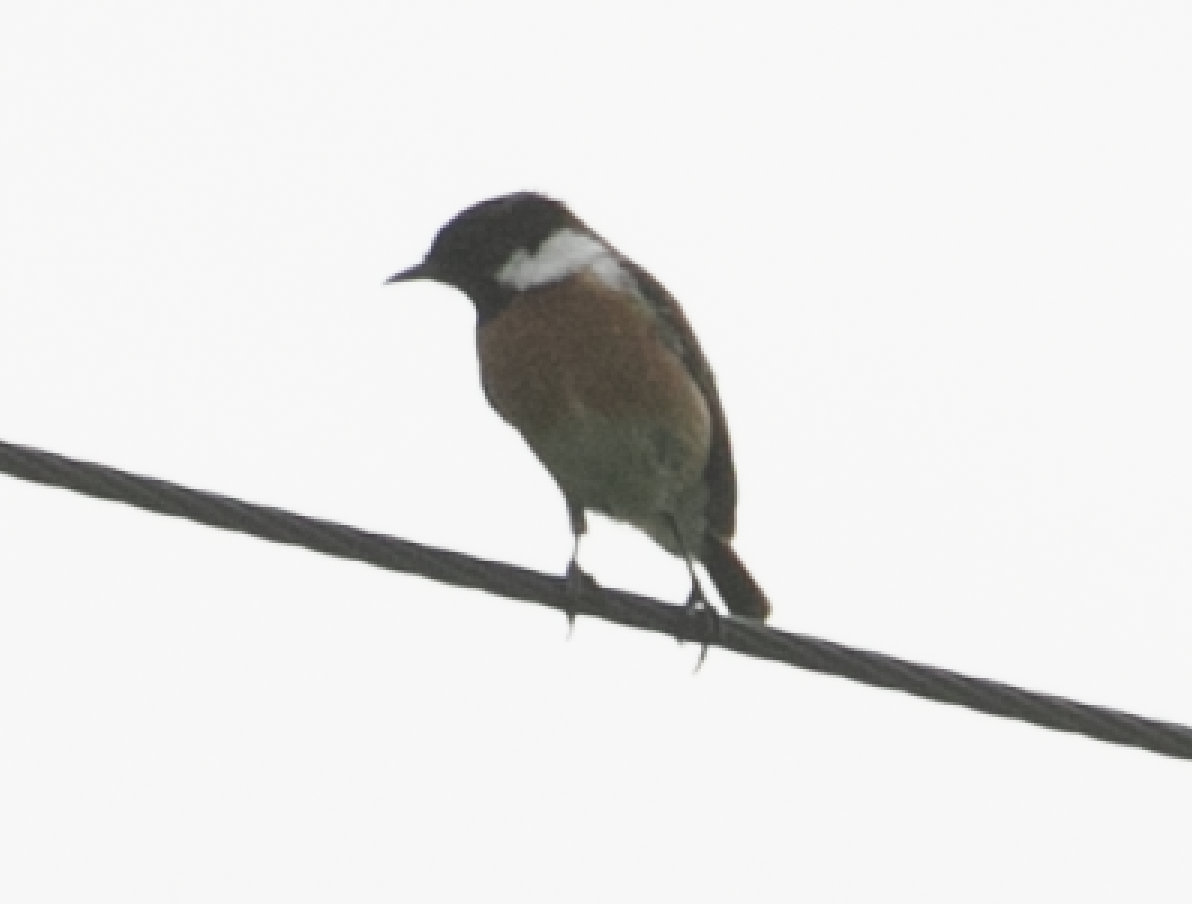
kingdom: Animalia
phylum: Chordata
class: Aves
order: Passeriformes
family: Muscicapidae
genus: Saxicola
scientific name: Saxicola rubicola
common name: European stonechat
